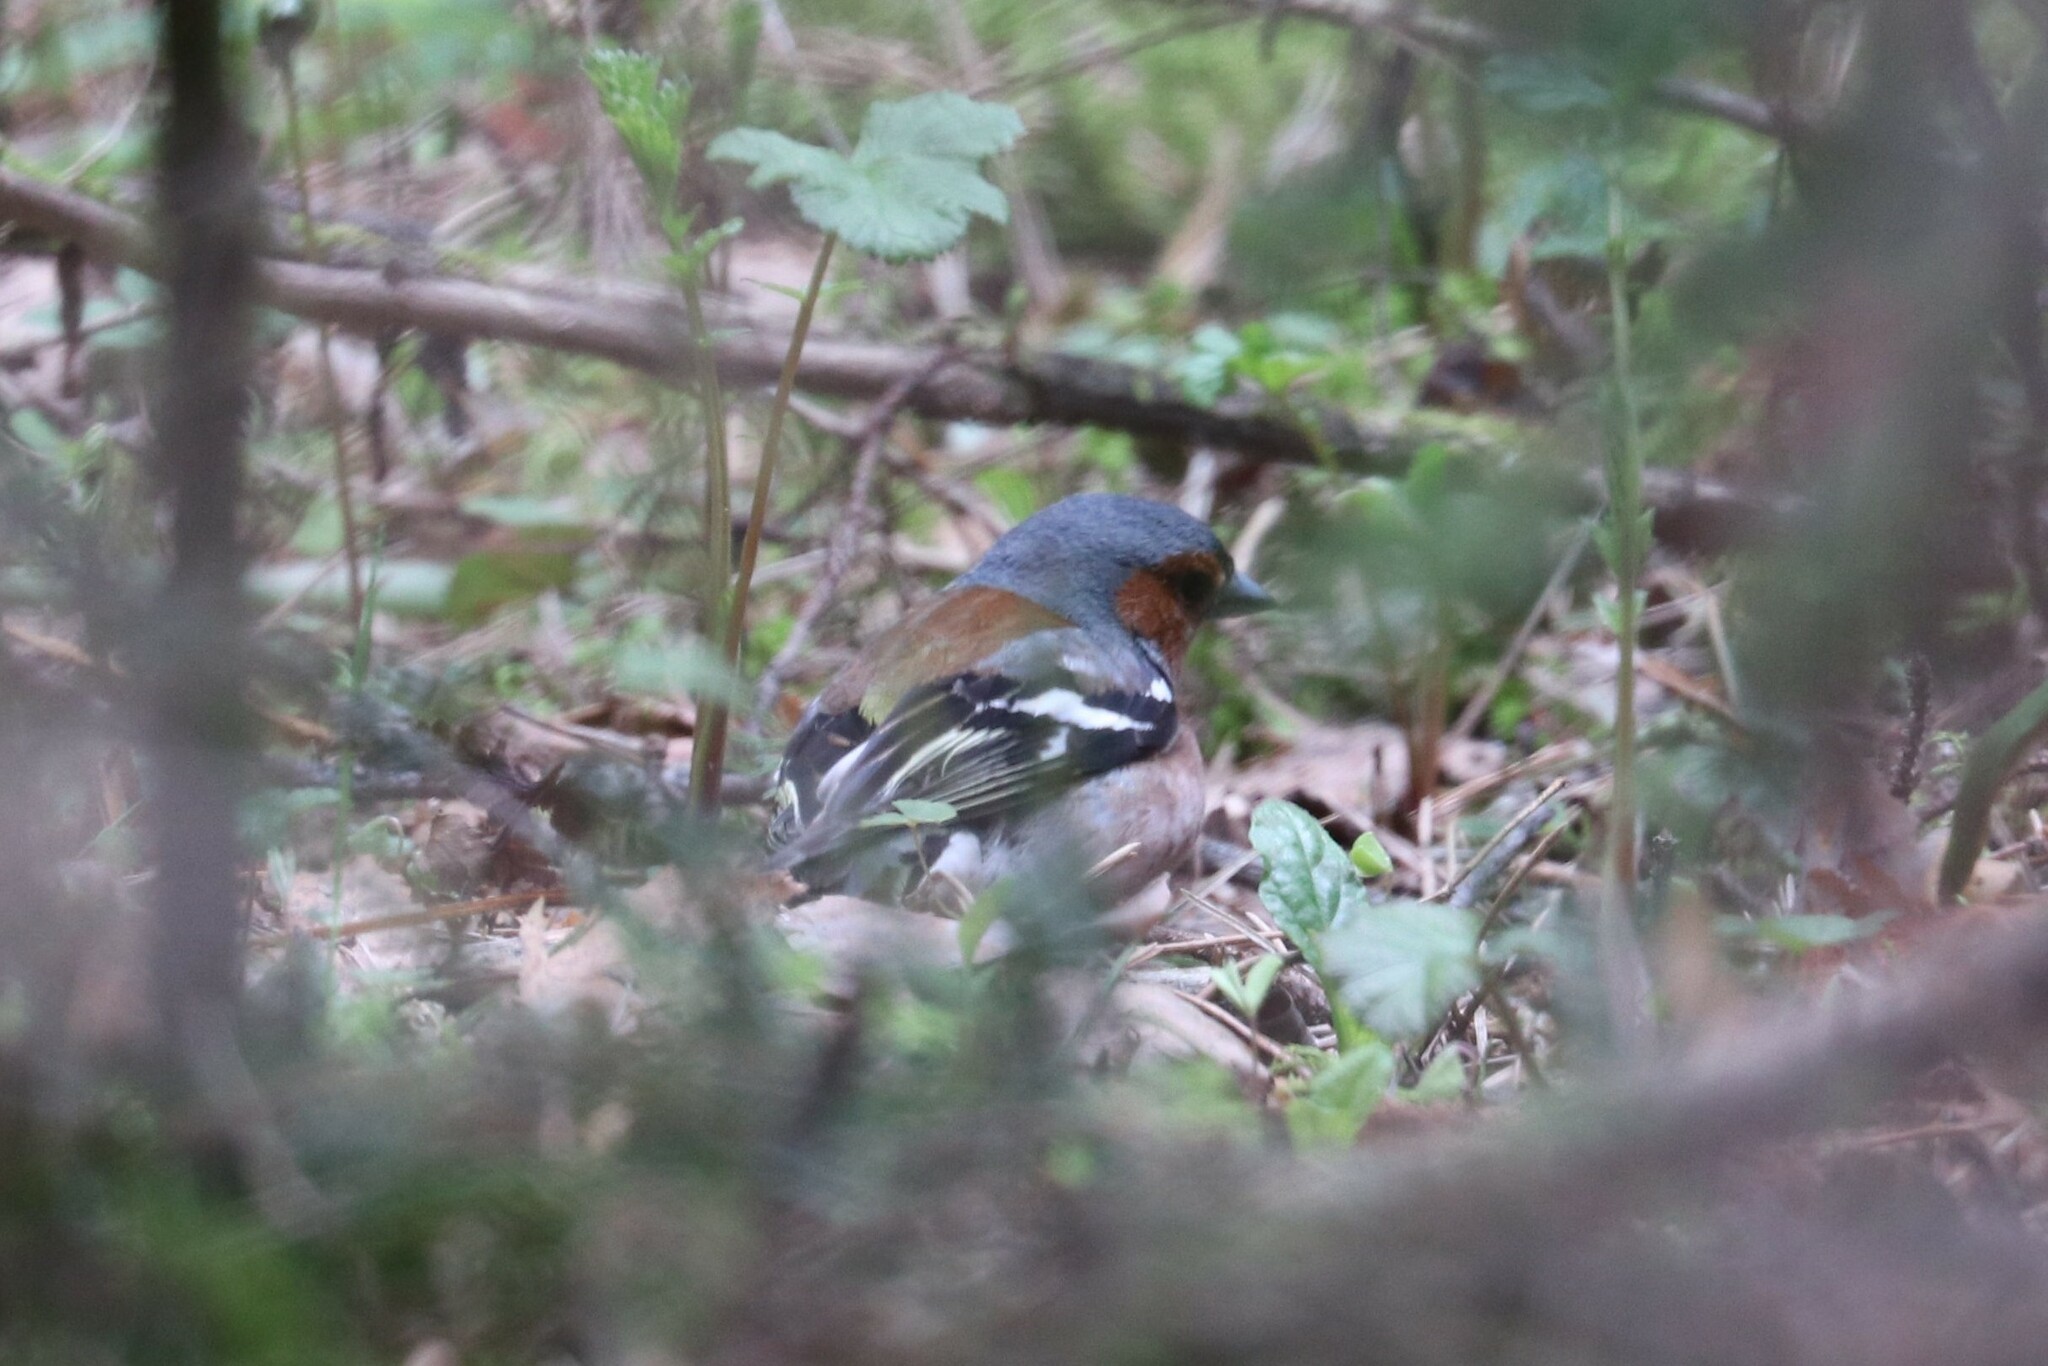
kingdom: Animalia
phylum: Chordata
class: Aves
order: Passeriformes
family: Fringillidae
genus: Fringilla
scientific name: Fringilla coelebs
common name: Common chaffinch
